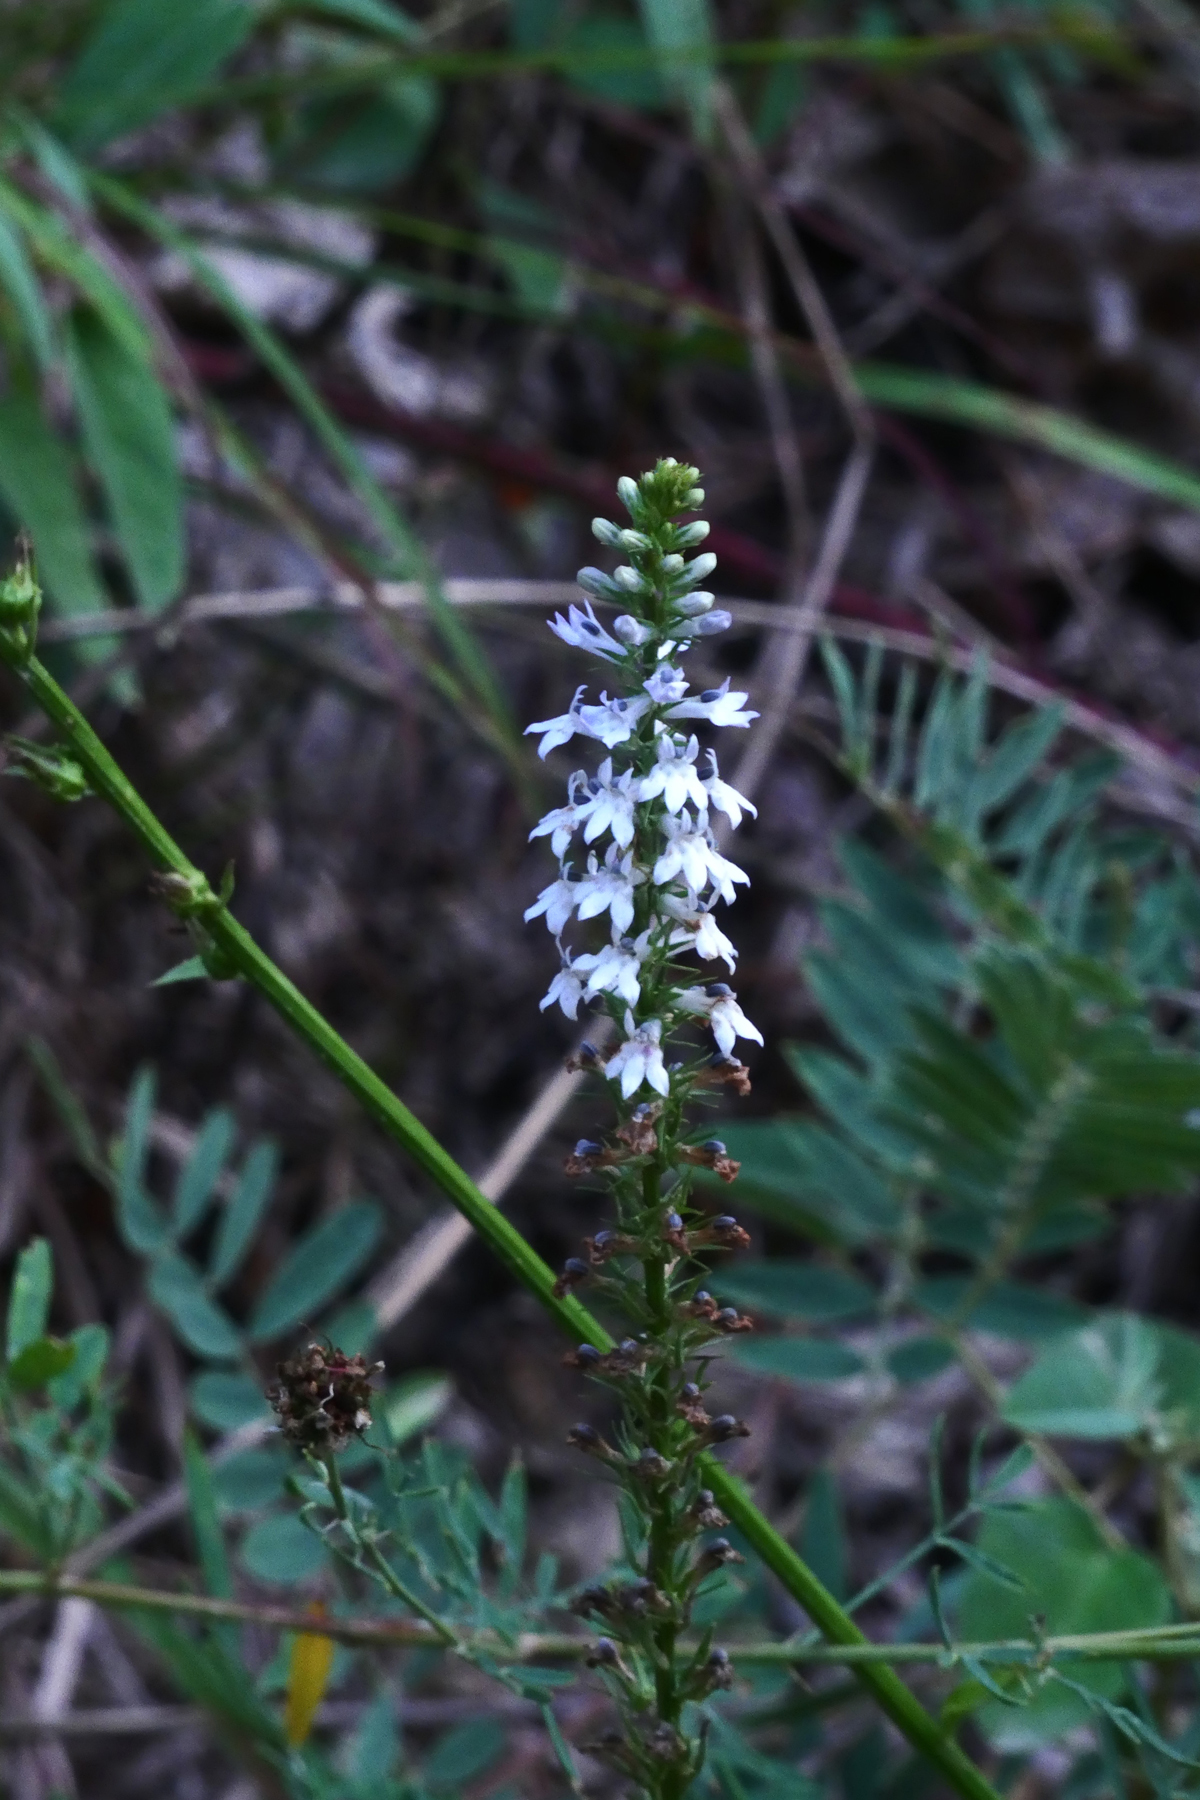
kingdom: Plantae
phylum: Tracheophyta
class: Magnoliopsida
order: Asterales
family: Campanulaceae
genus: Lobelia
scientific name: Lobelia spicata
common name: Pale-spike lobelia
